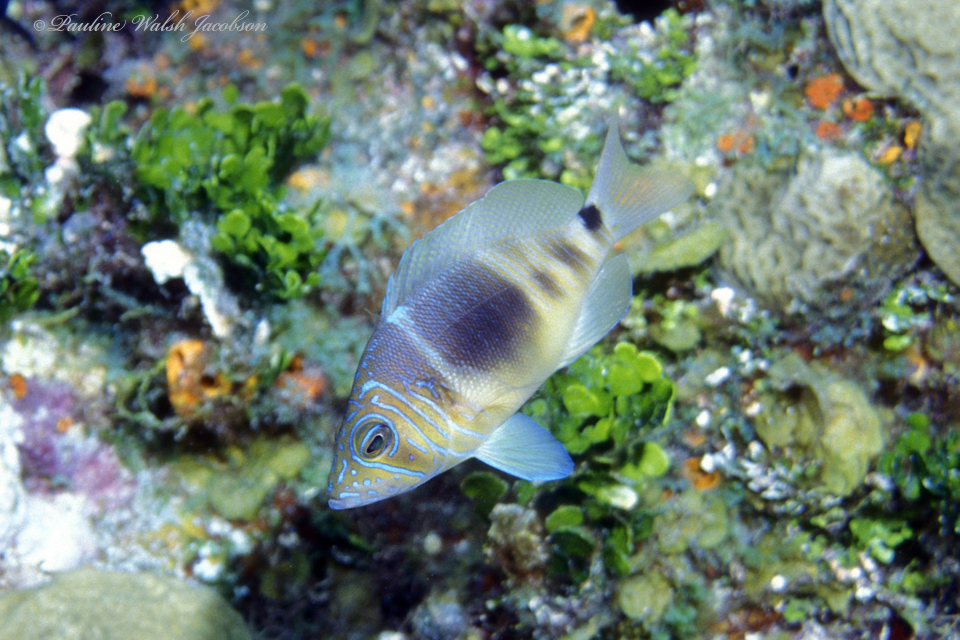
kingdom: Animalia
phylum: Chordata
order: Perciformes
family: Serranidae
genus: Hypoplectrus
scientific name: Hypoplectrus puella
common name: Barred hamlet
